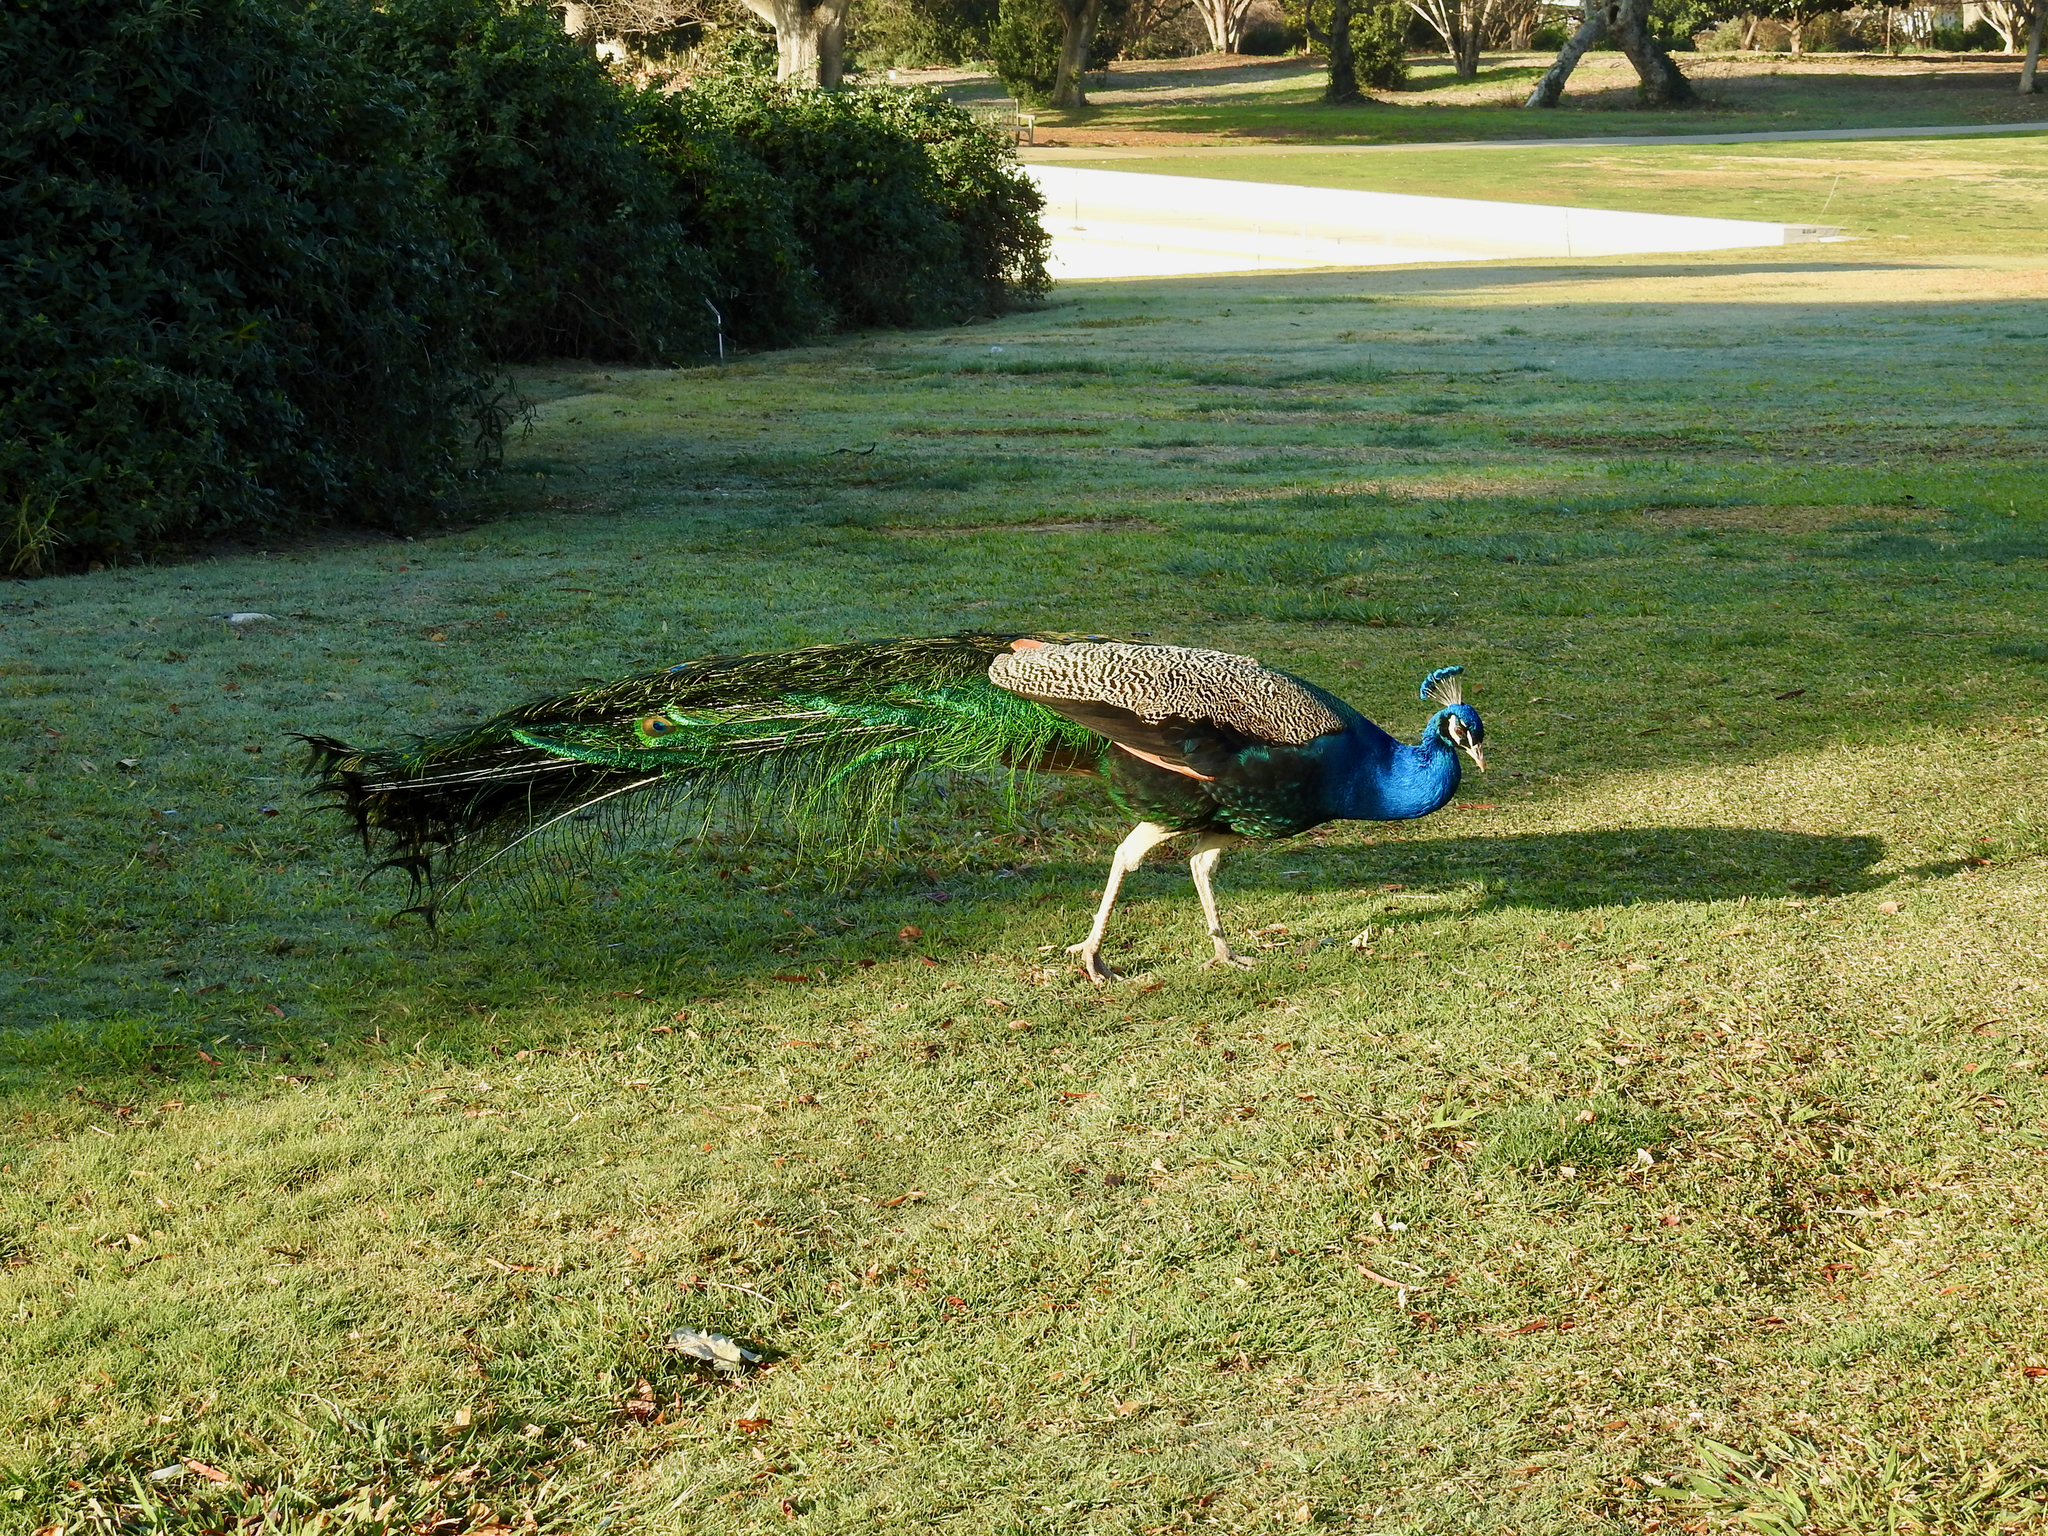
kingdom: Animalia
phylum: Chordata
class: Aves
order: Galliformes
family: Phasianidae
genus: Pavo
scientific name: Pavo cristatus
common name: Indian peafowl
